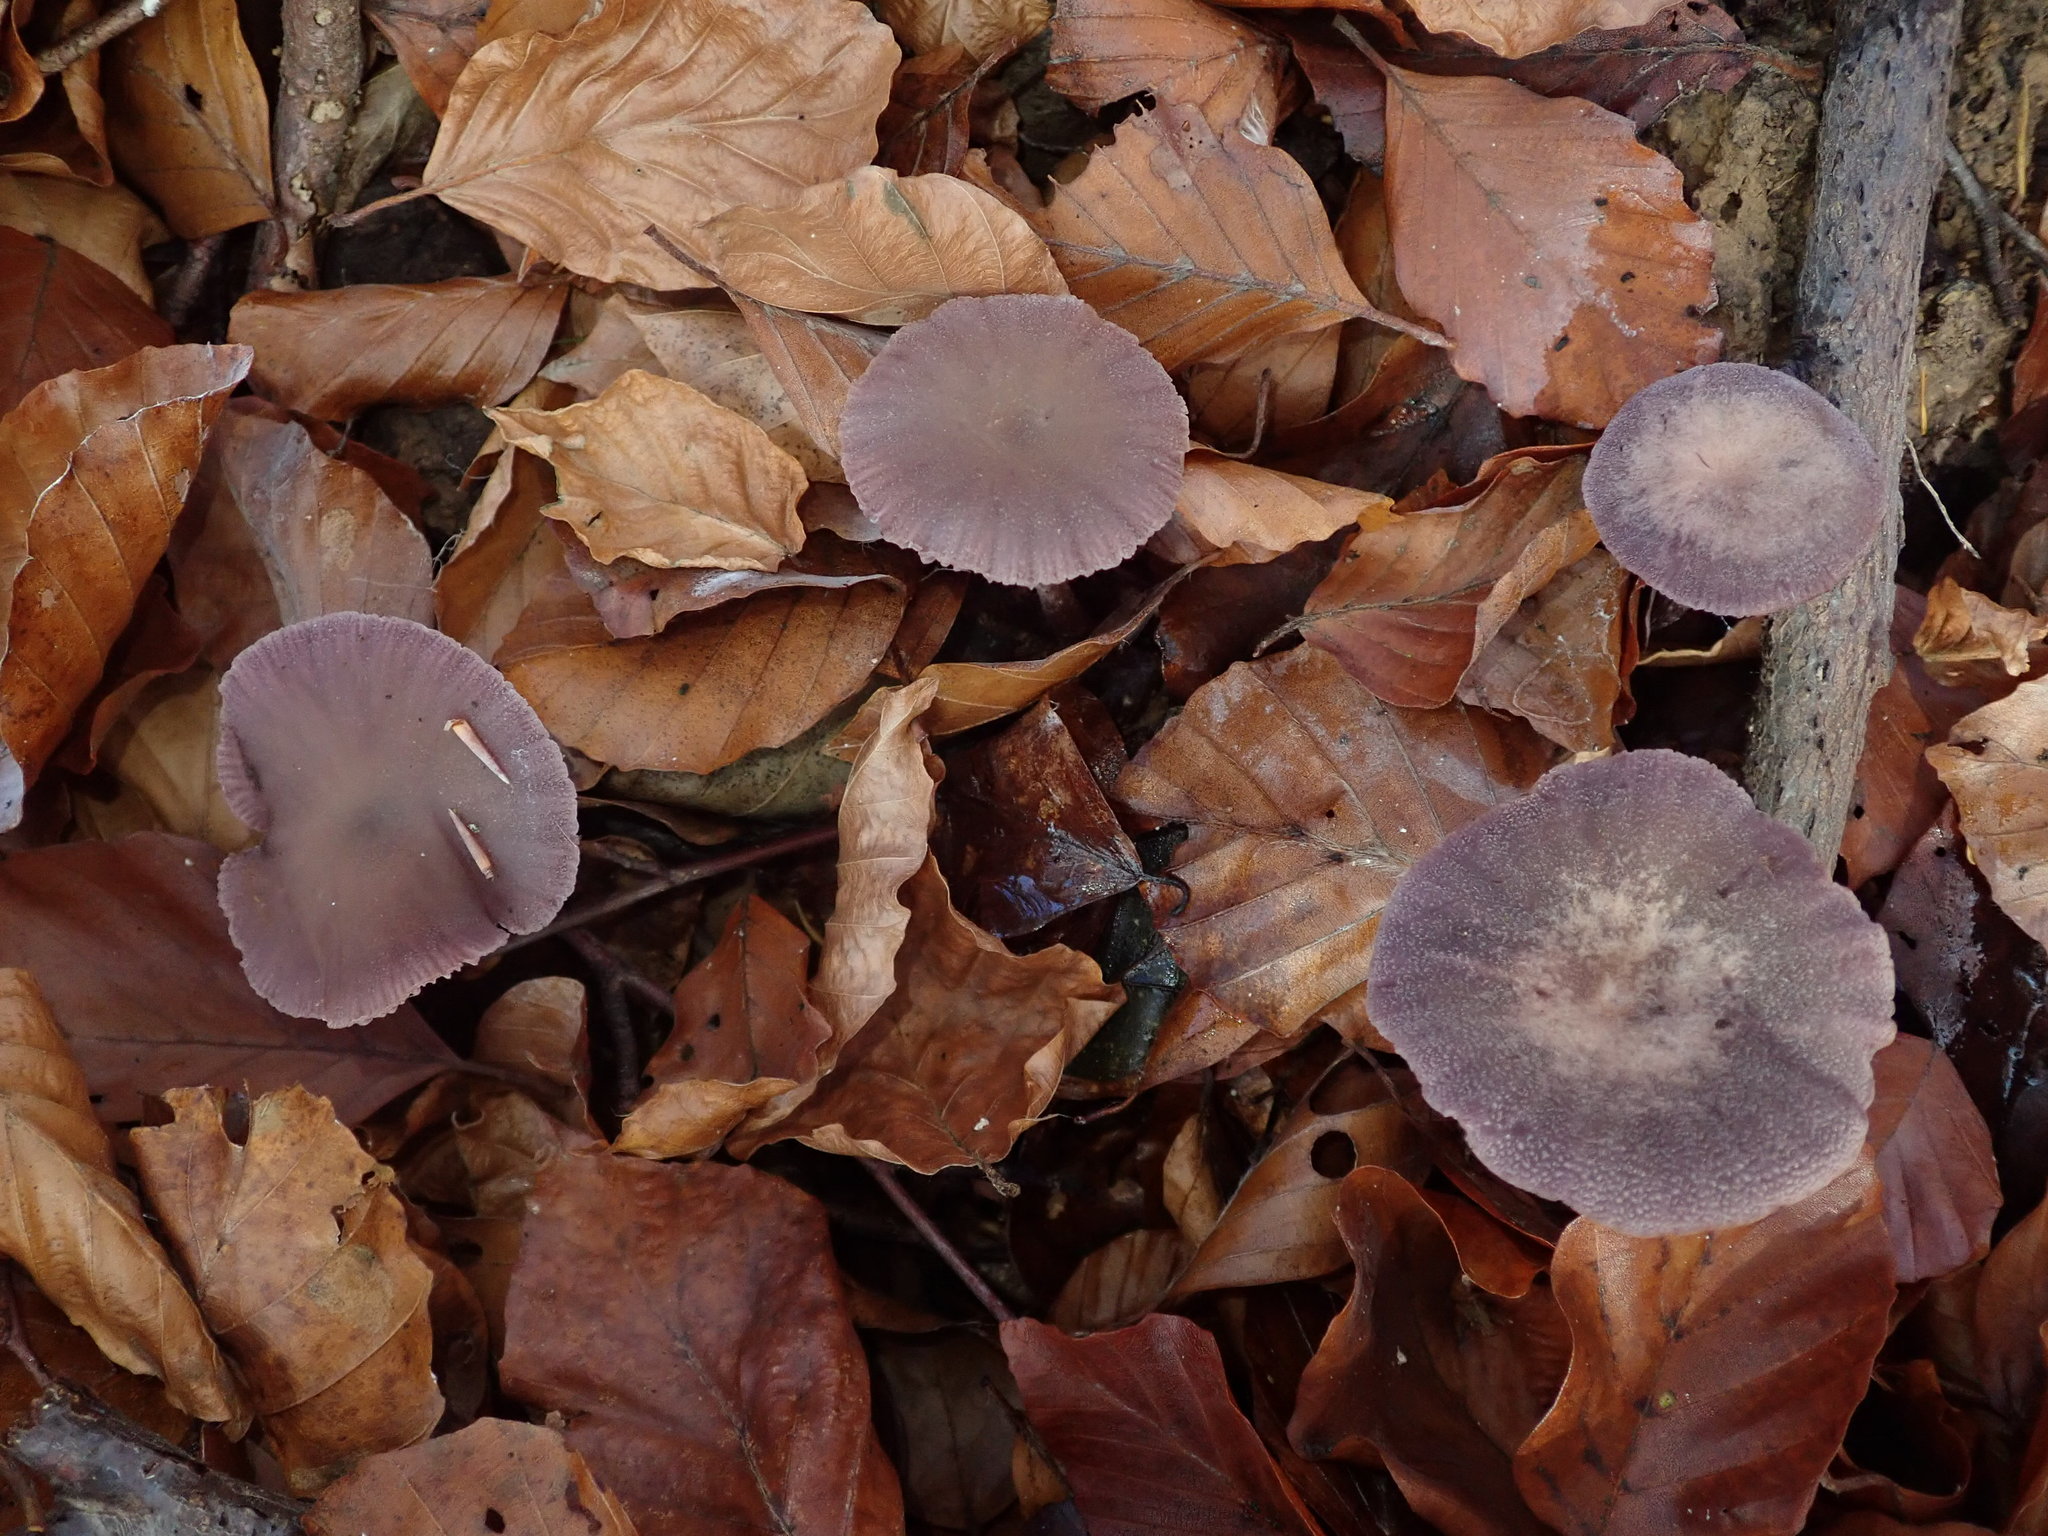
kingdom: Fungi
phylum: Basidiomycota
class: Agaricomycetes
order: Agaricales
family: Hydnangiaceae
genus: Laccaria
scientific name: Laccaria amethystina
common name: Amethyst deceiver
